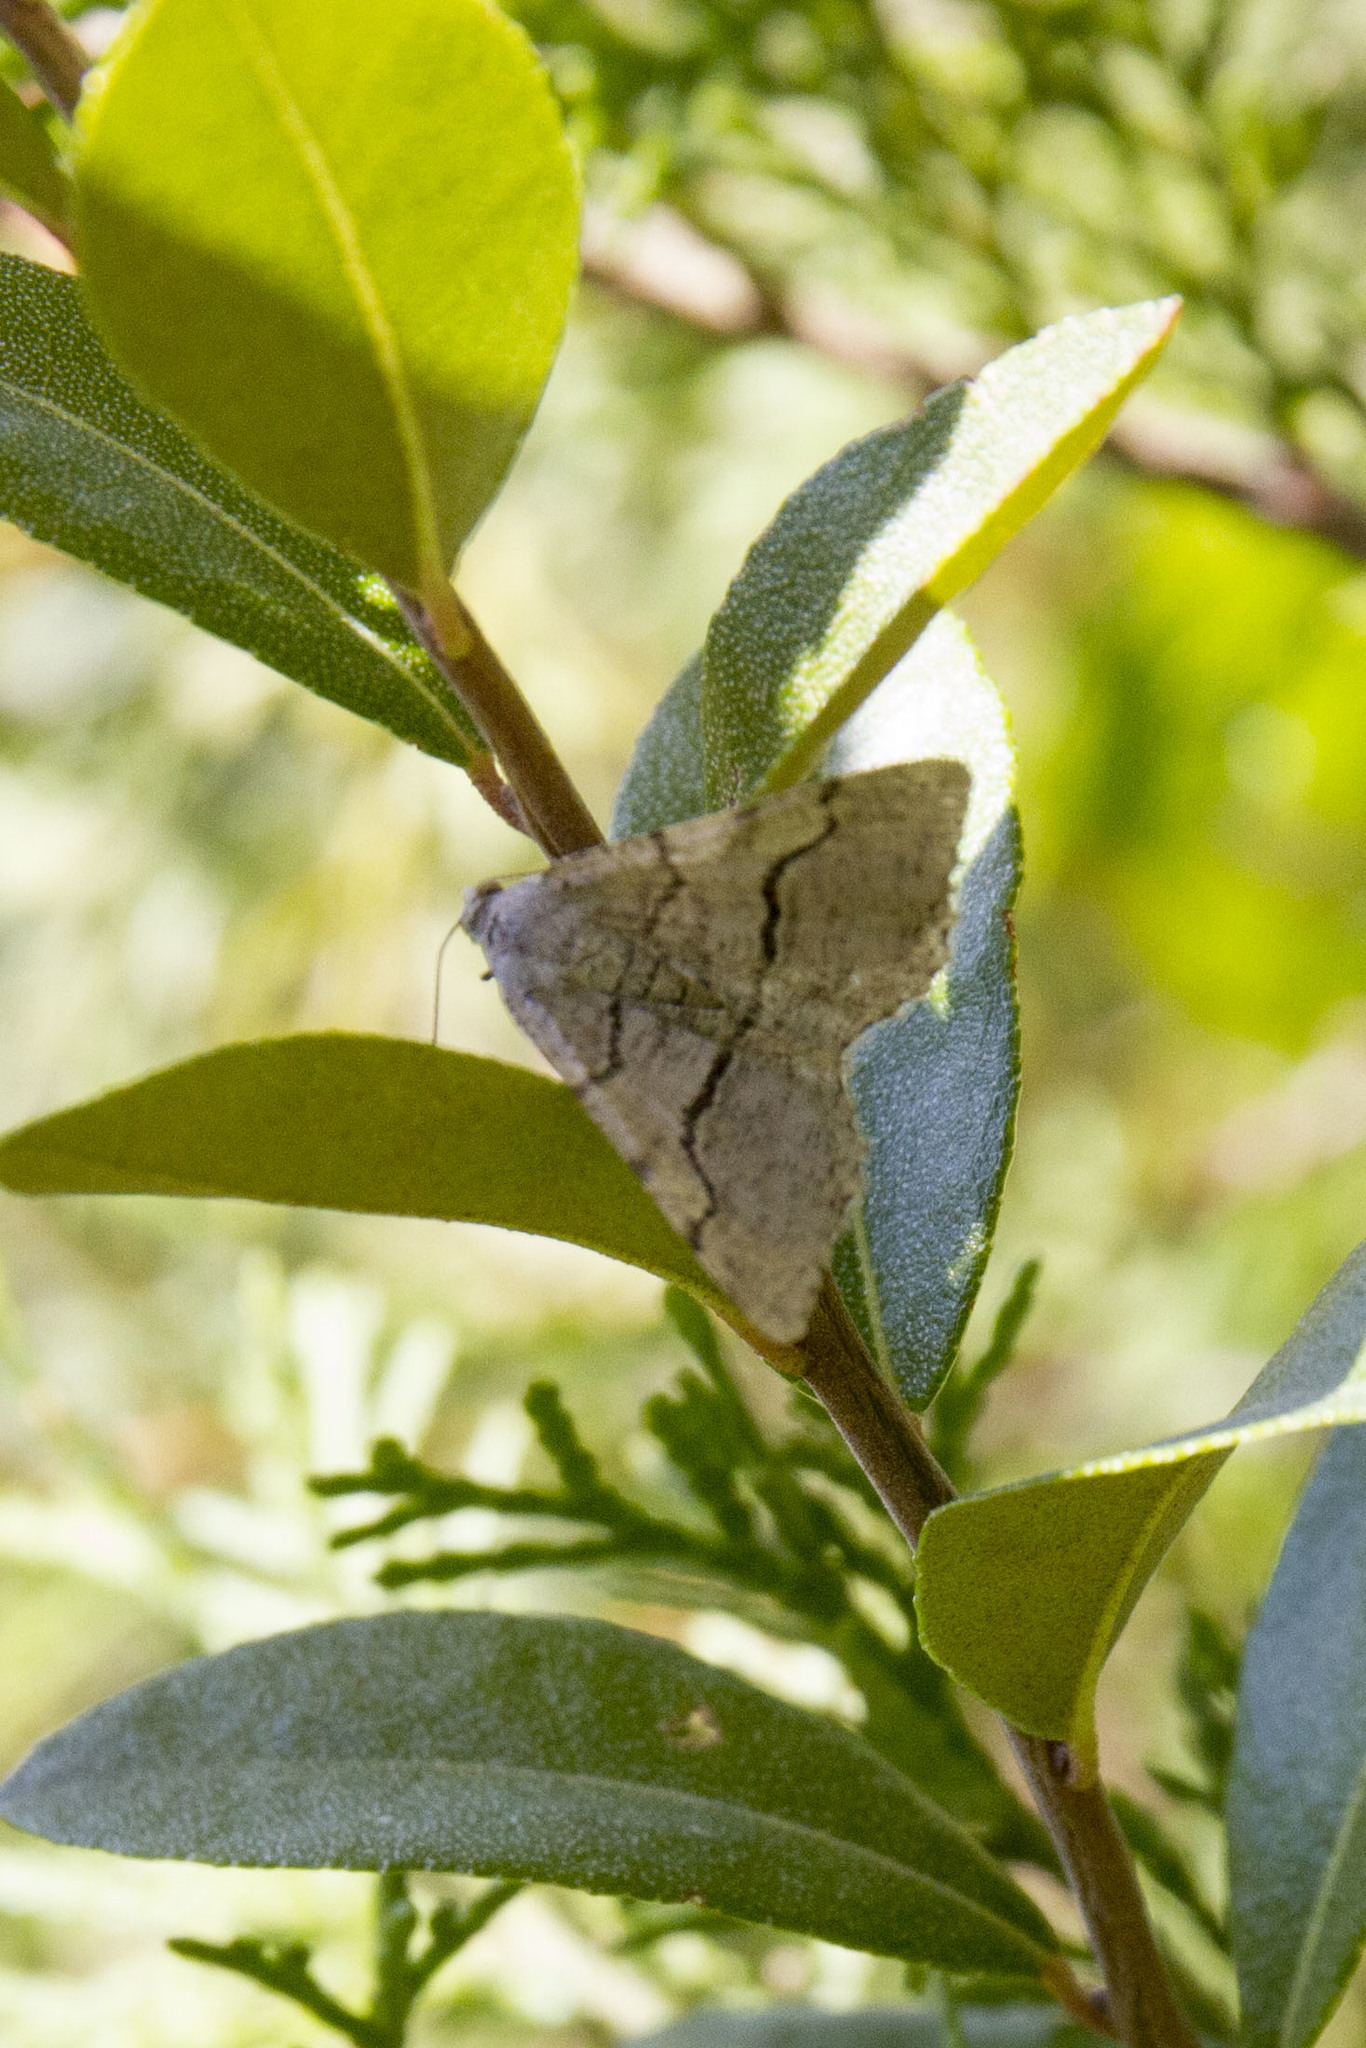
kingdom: Animalia
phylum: Arthropoda
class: Insecta
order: Lepidoptera
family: Geometridae
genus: Digrammia
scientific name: Digrammia continuata
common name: Curve-lined angle
